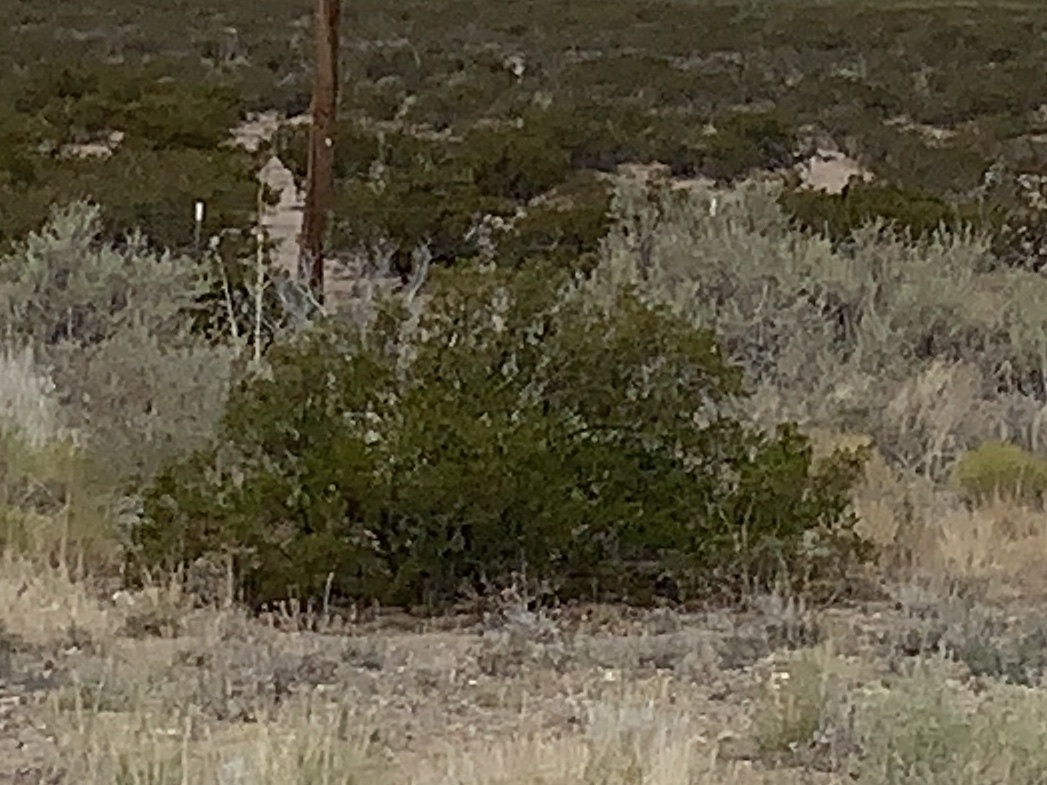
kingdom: Plantae
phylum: Tracheophyta
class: Magnoliopsida
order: Zygophyllales
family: Zygophyllaceae
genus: Larrea
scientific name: Larrea tridentata
